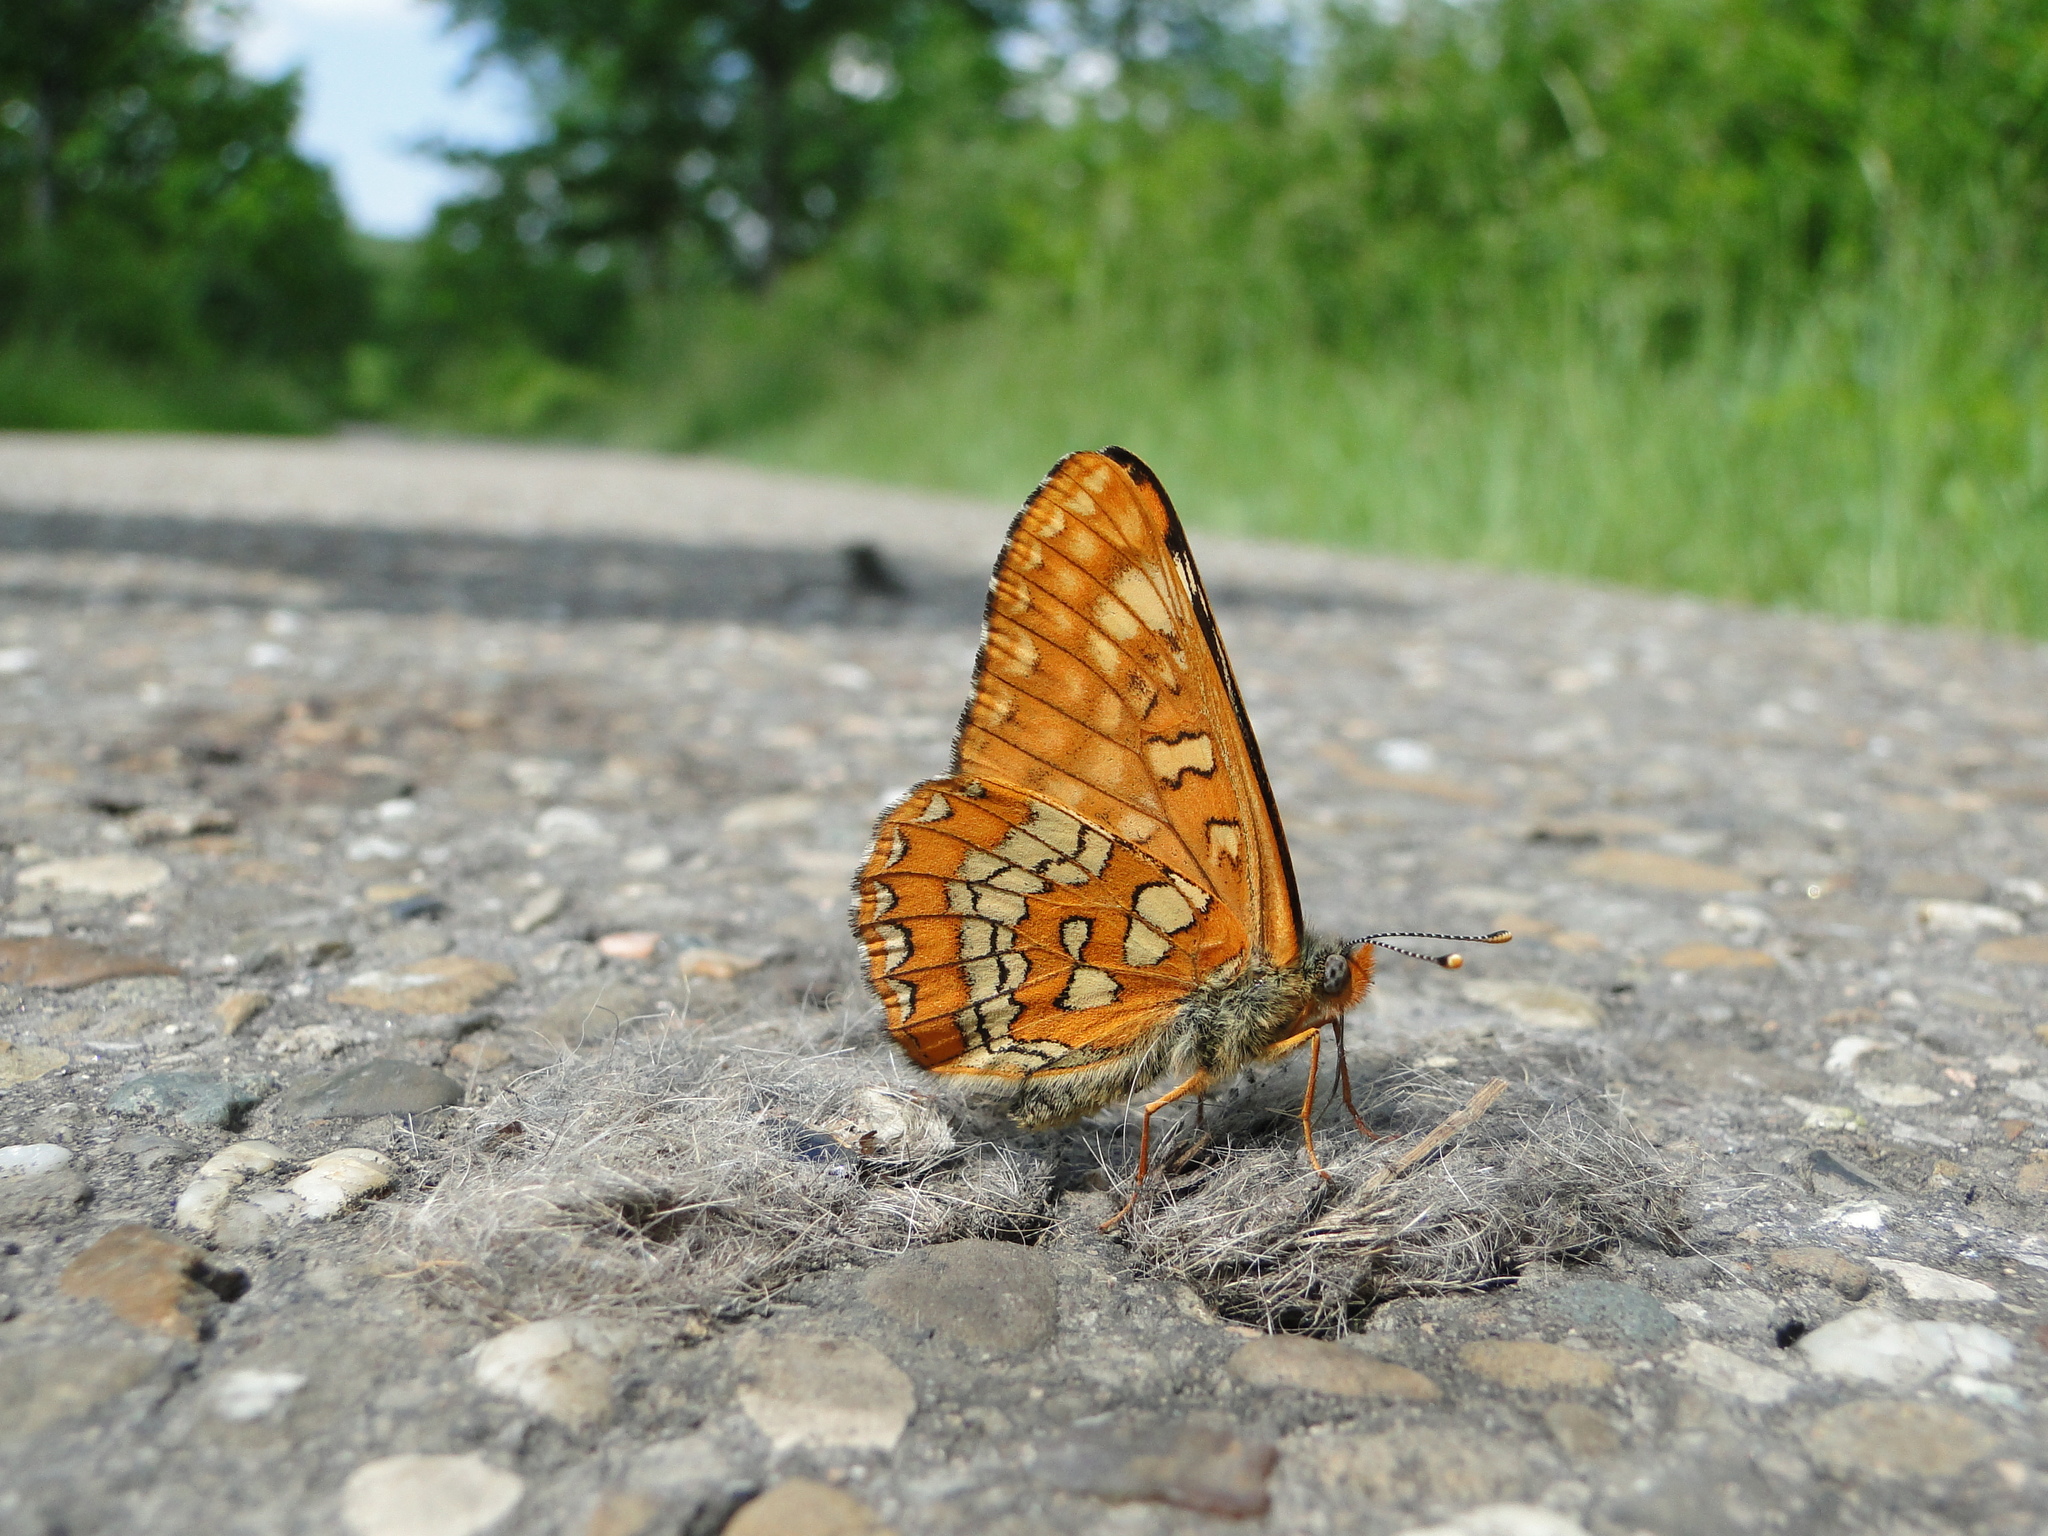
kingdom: Animalia
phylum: Arthropoda
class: Insecta
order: Lepidoptera
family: Nymphalidae
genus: Euphydryas
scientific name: Euphydryas maturna
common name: Scarce fritillary
